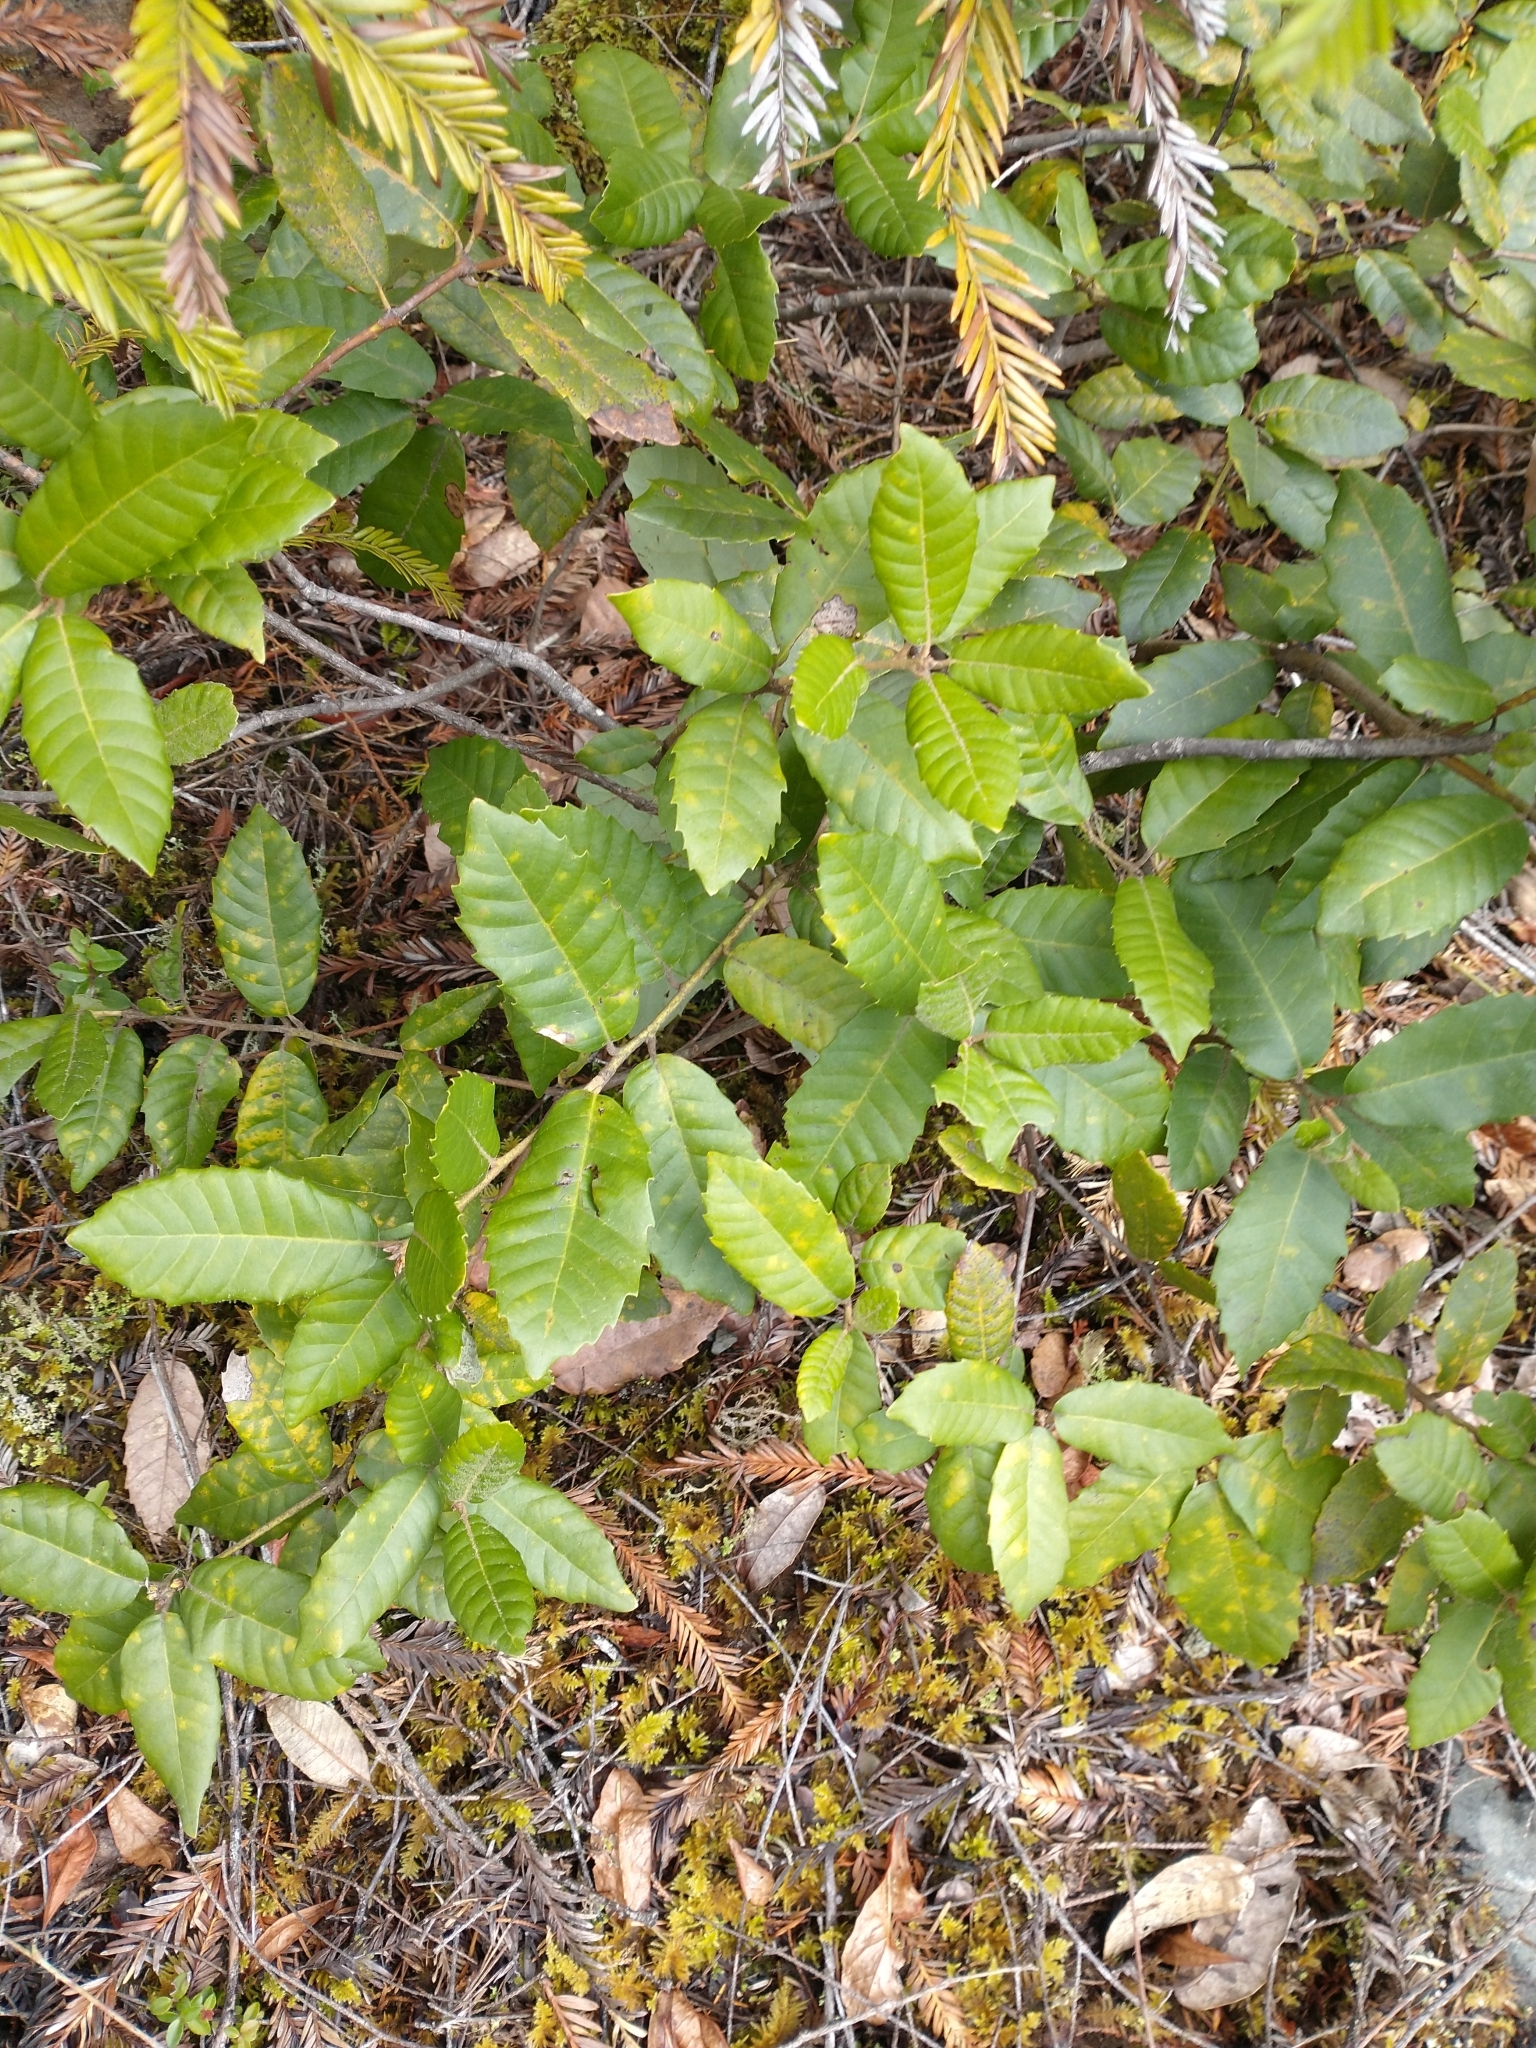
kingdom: Plantae
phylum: Tracheophyta
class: Magnoliopsida
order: Fagales
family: Fagaceae
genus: Notholithocarpus
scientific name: Notholithocarpus densiflorus
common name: Tan bark oak
